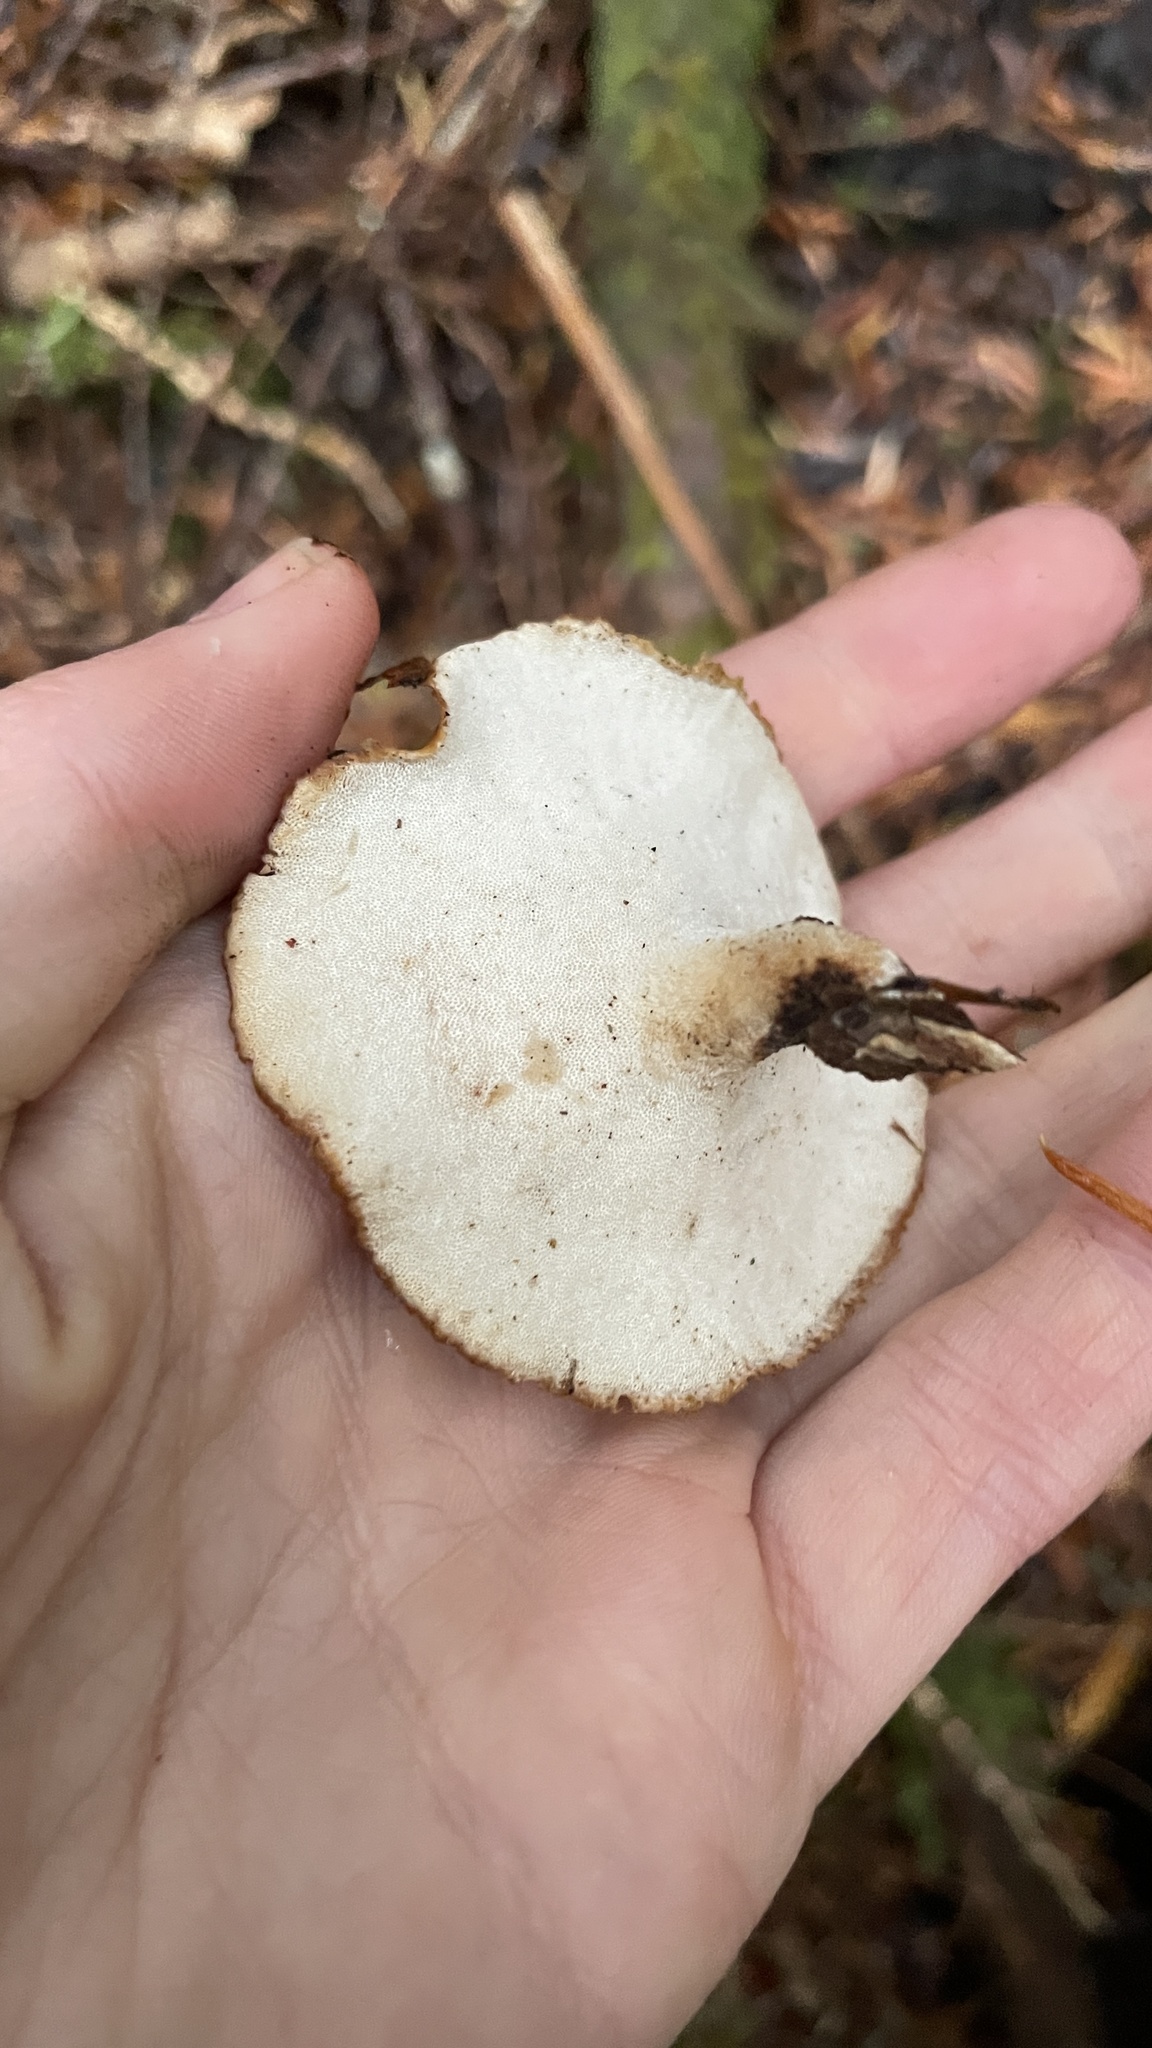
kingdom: Fungi
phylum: Basidiomycota
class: Agaricomycetes
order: Polyporales
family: Polyporaceae
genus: Picipes
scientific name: Picipes badius
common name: Bay polypore
